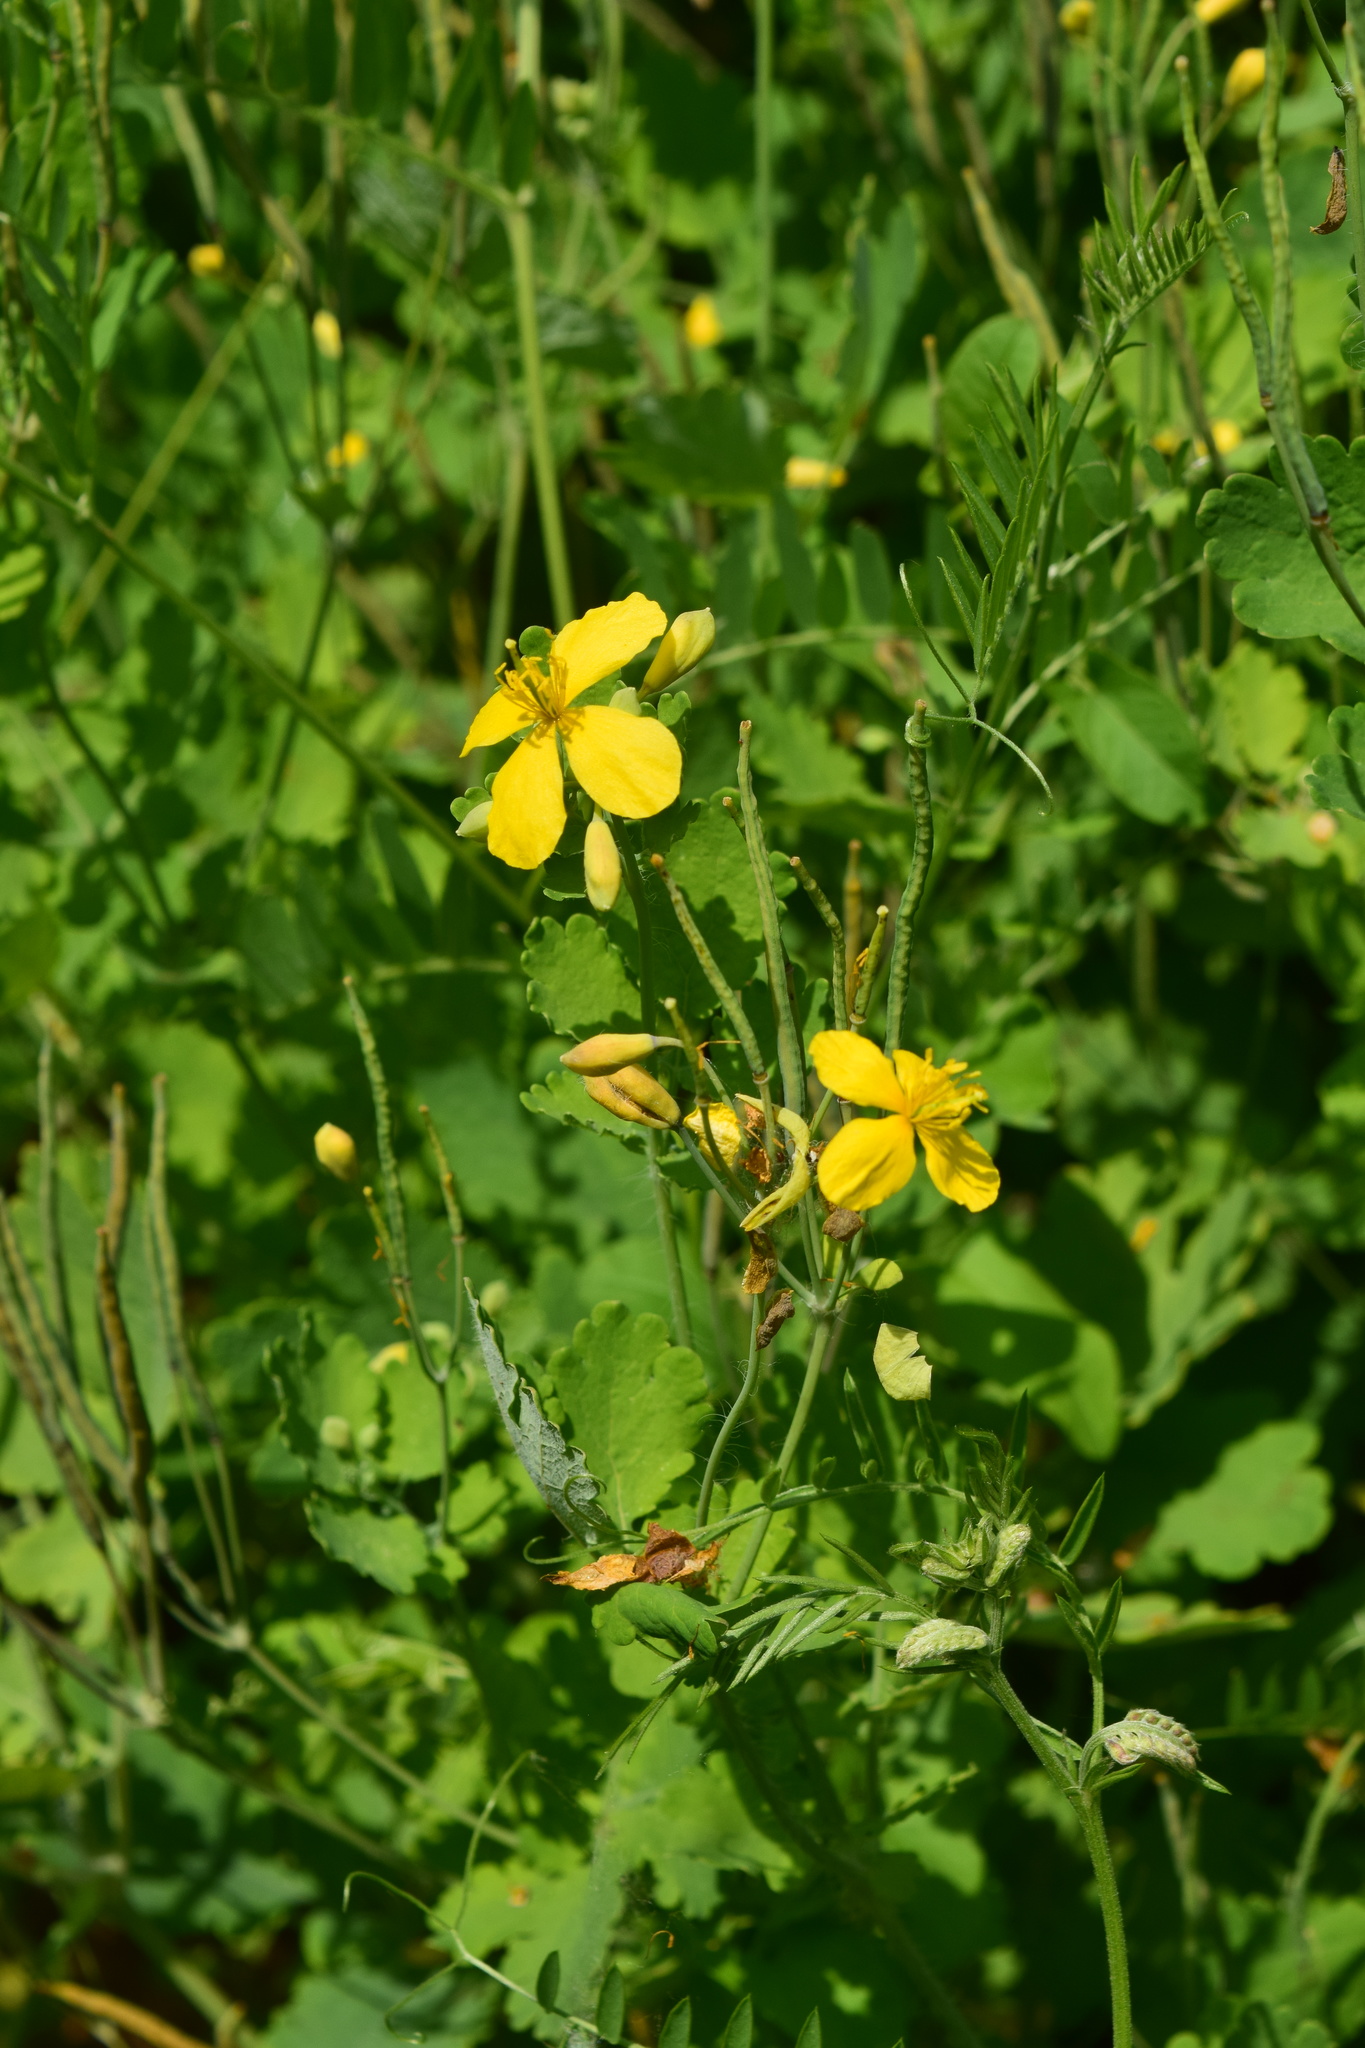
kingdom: Plantae
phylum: Tracheophyta
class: Magnoliopsida
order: Ranunculales
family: Papaveraceae
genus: Chelidonium
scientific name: Chelidonium majus
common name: Greater celandine
